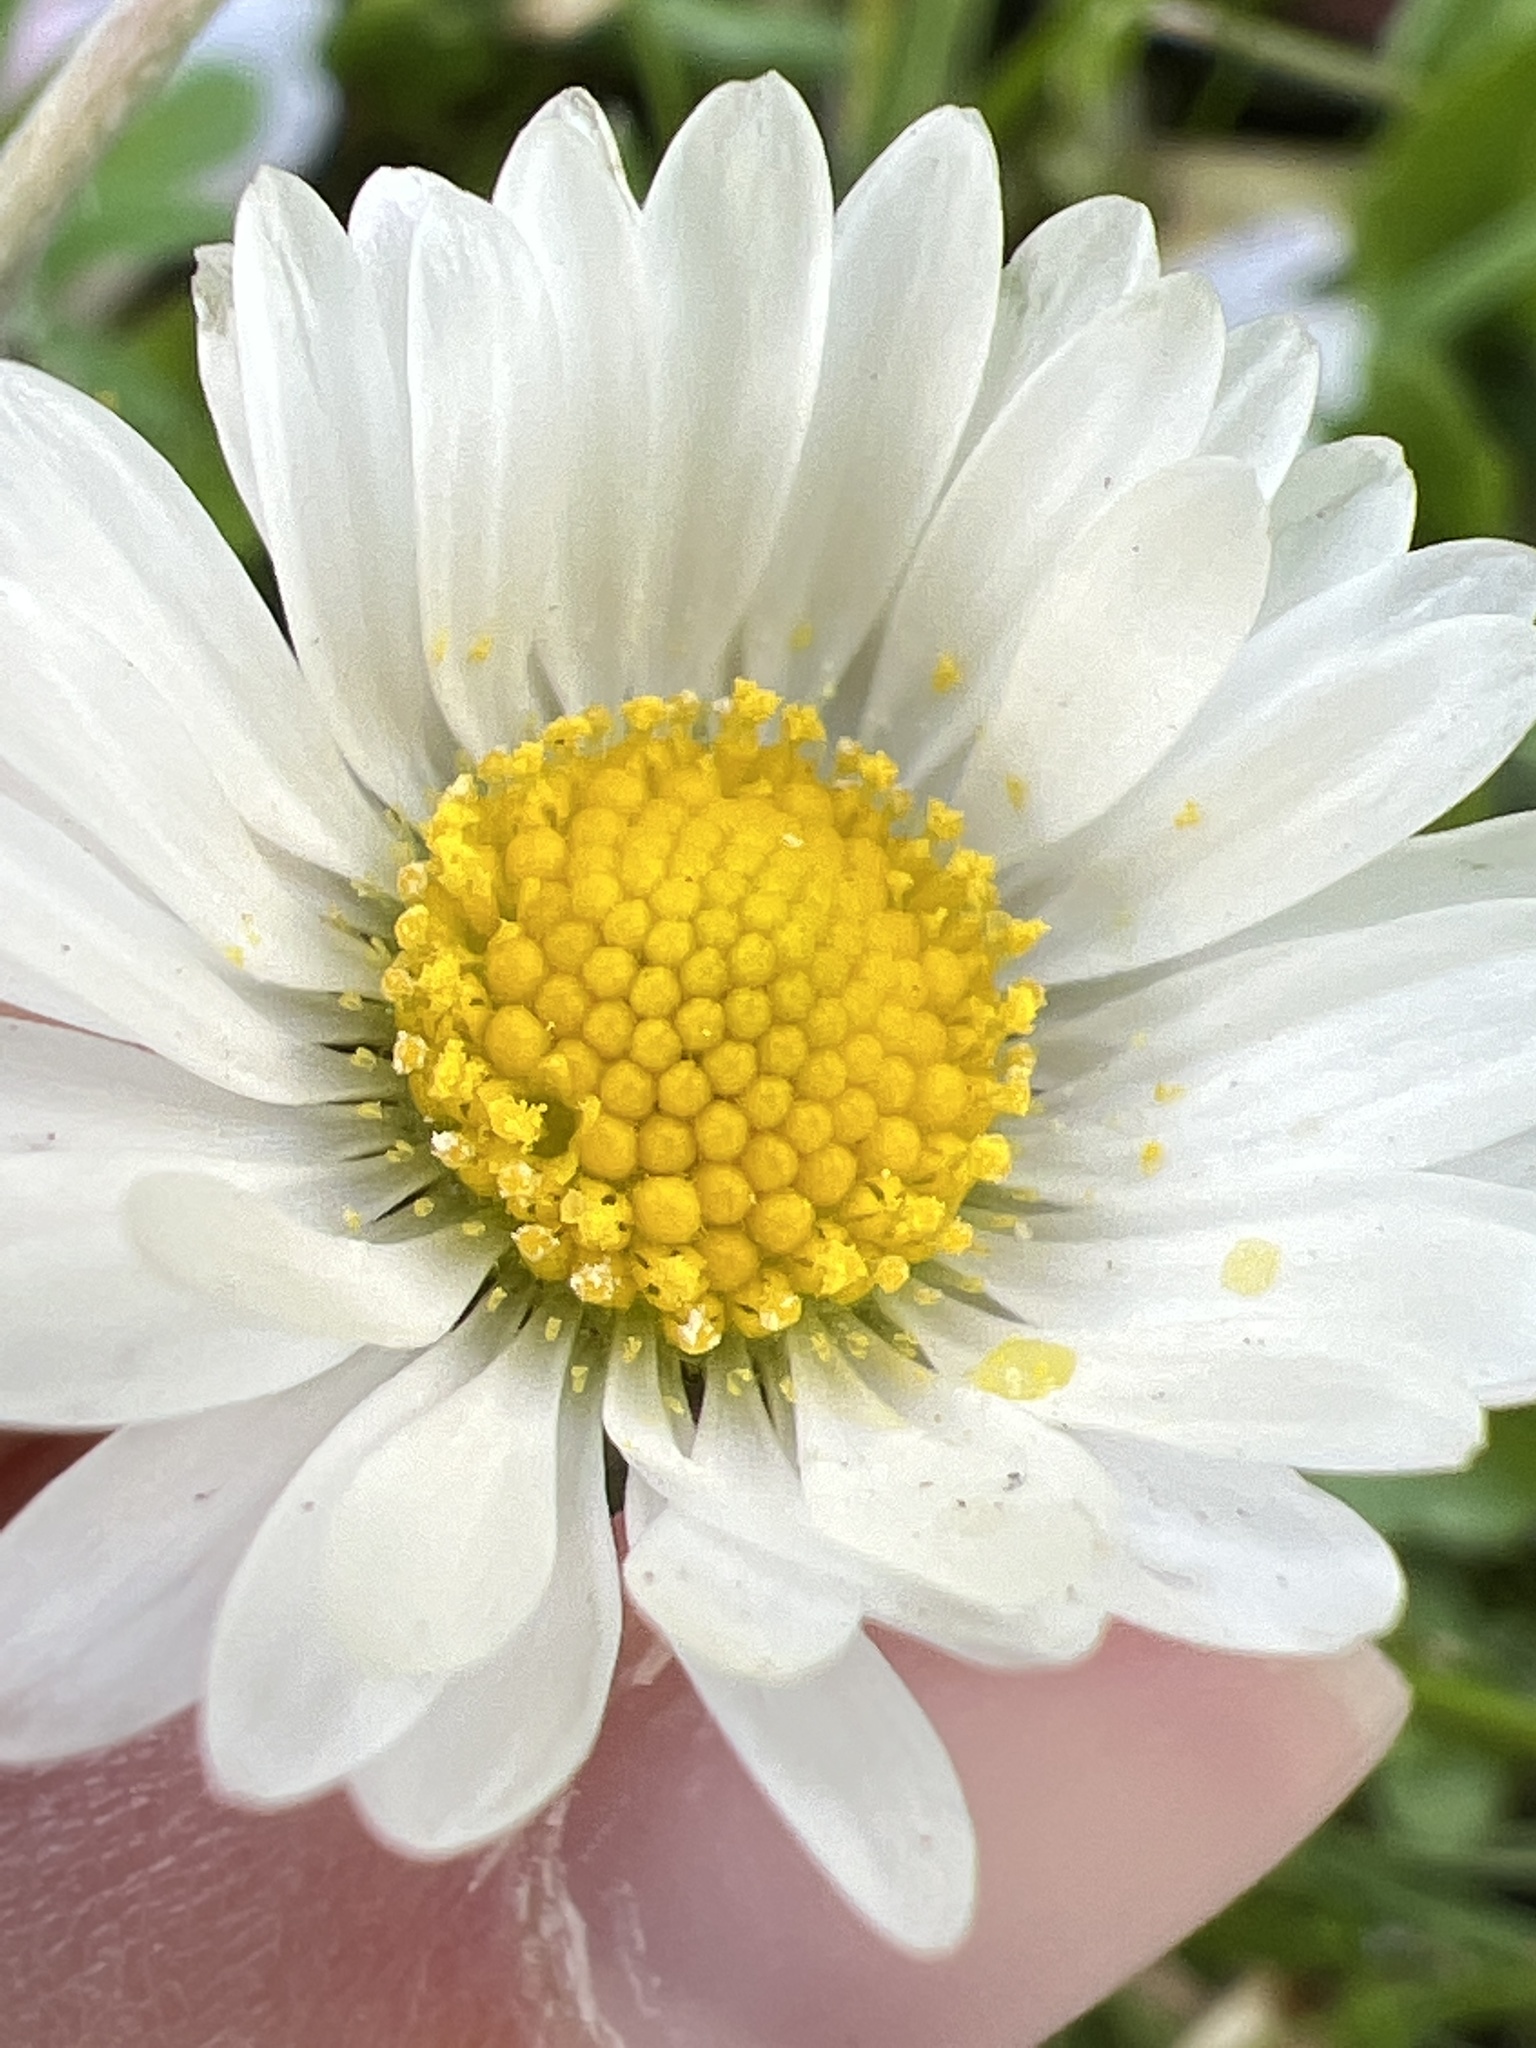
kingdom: Plantae
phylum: Tracheophyta
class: Magnoliopsida
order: Asterales
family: Asteraceae
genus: Bellis
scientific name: Bellis perennis
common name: Lawndaisy
